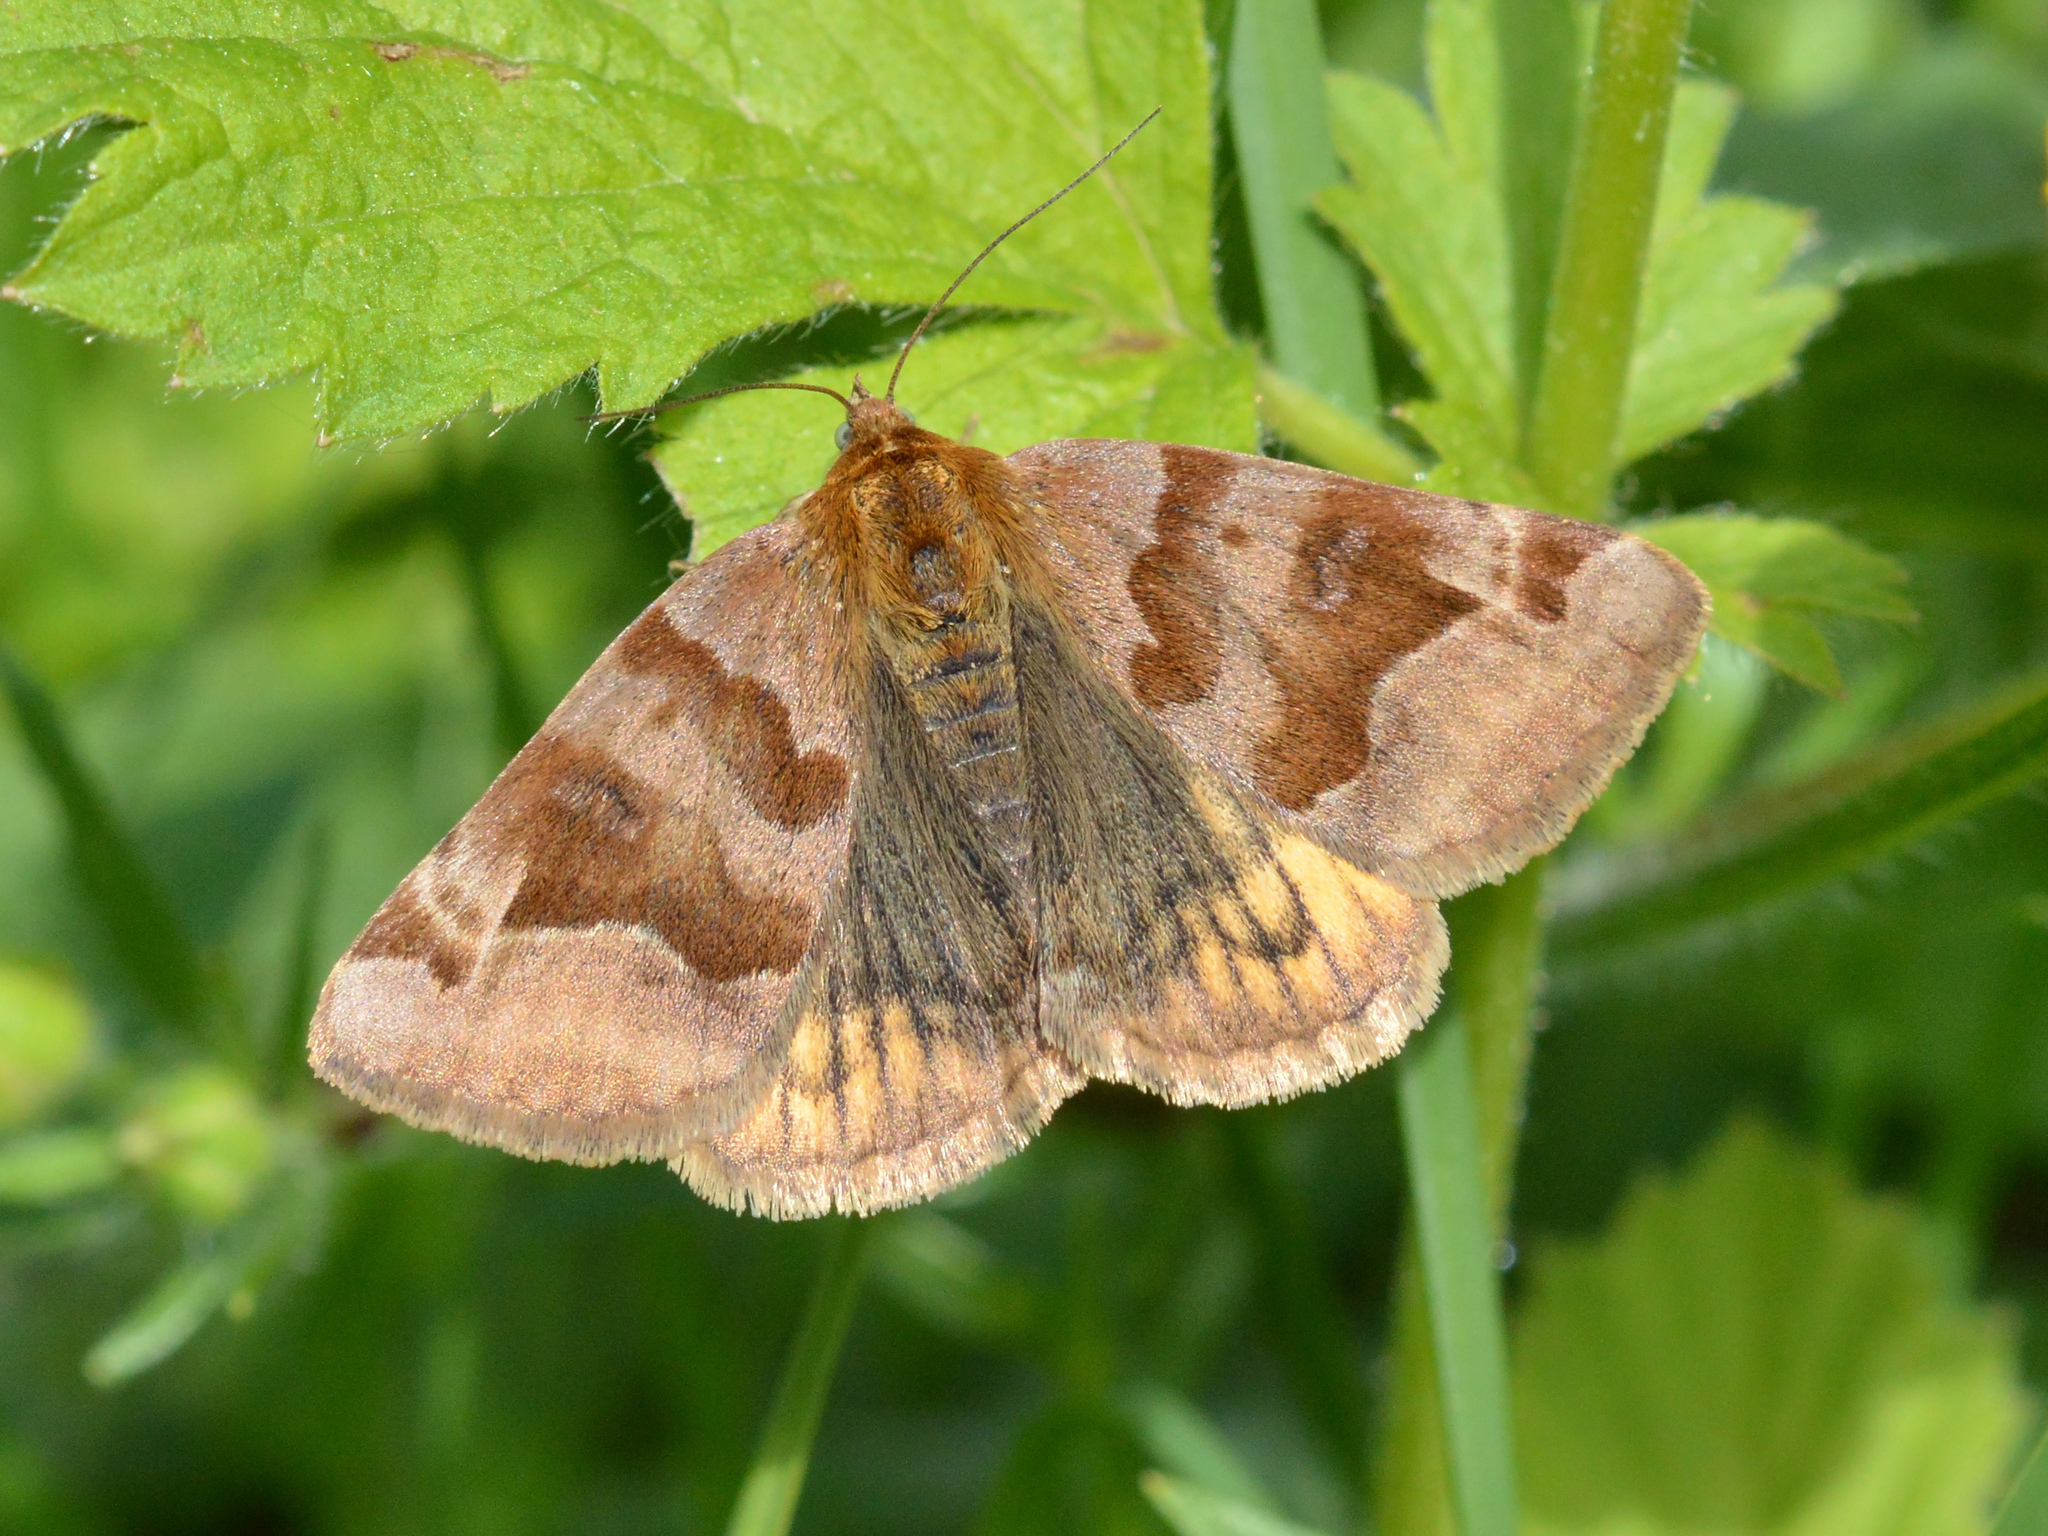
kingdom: Animalia
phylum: Arthropoda
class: Insecta
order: Lepidoptera
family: Erebidae
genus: Euclidia
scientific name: Euclidia glyphica
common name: Burnet companion
